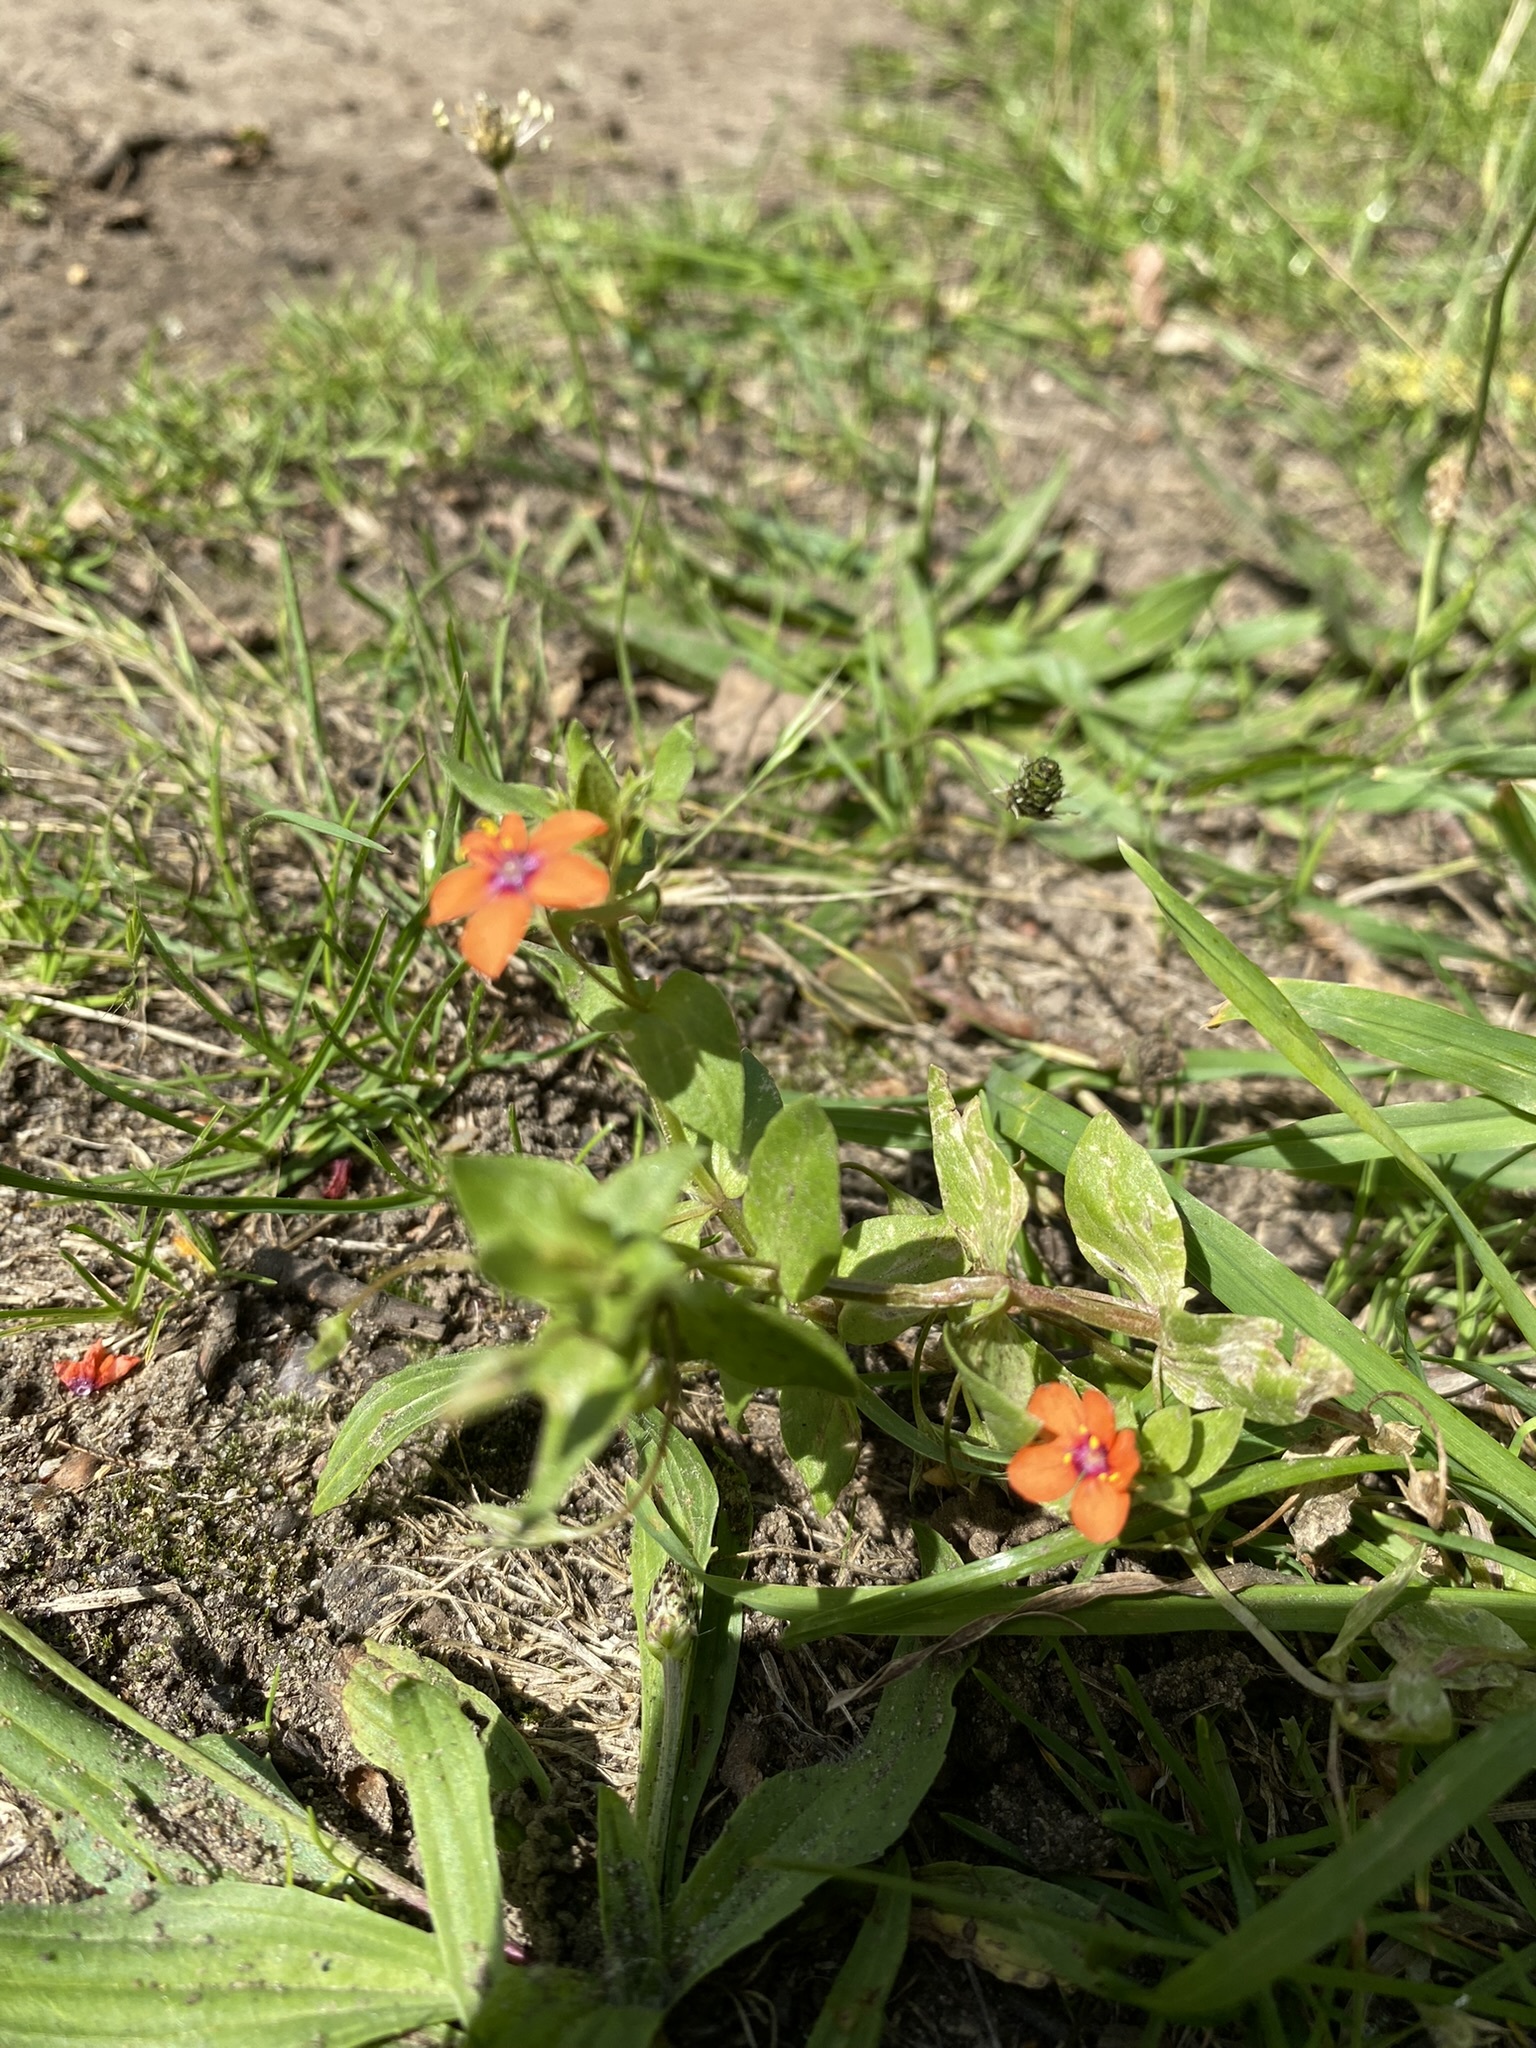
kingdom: Plantae
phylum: Tracheophyta
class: Magnoliopsida
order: Ericales
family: Primulaceae
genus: Lysimachia
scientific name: Lysimachia arvensis
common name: Scarlet pimpernel
